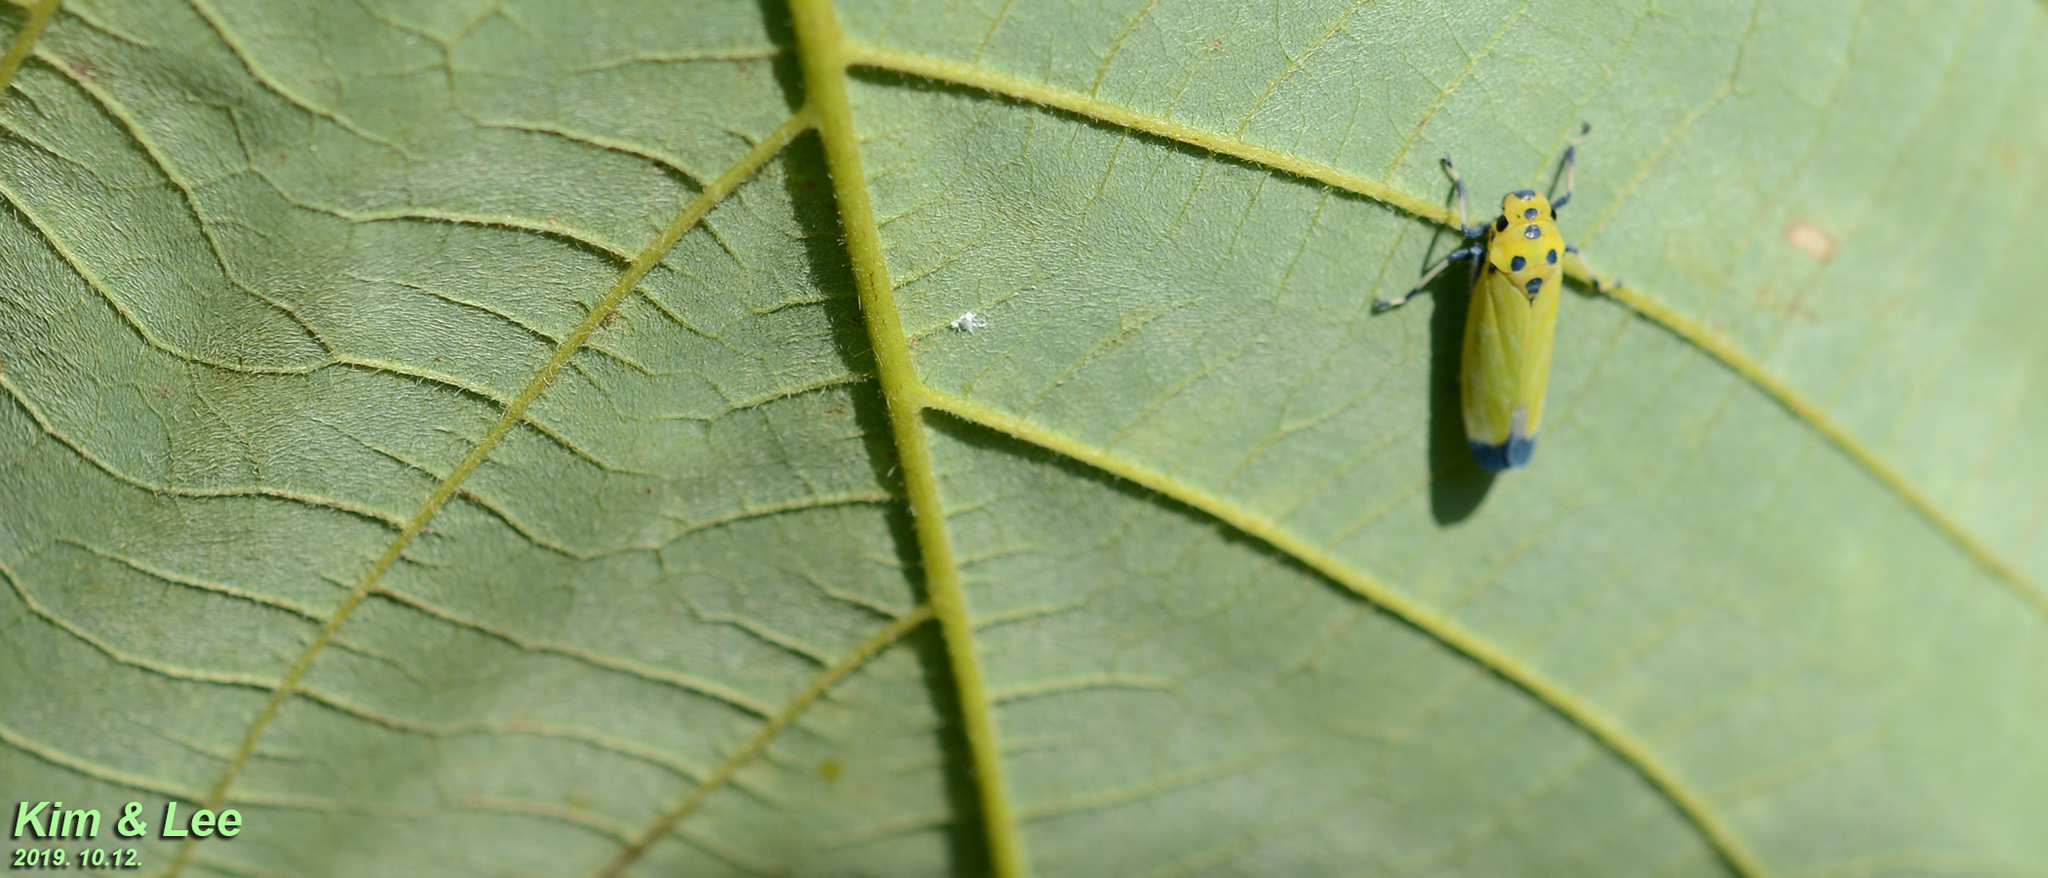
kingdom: Animalia
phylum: Arthropoda
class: Insecta
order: Hemiptera
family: Cicadellidae
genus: Bothrogonia
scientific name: Bothrogonia ferruginea
